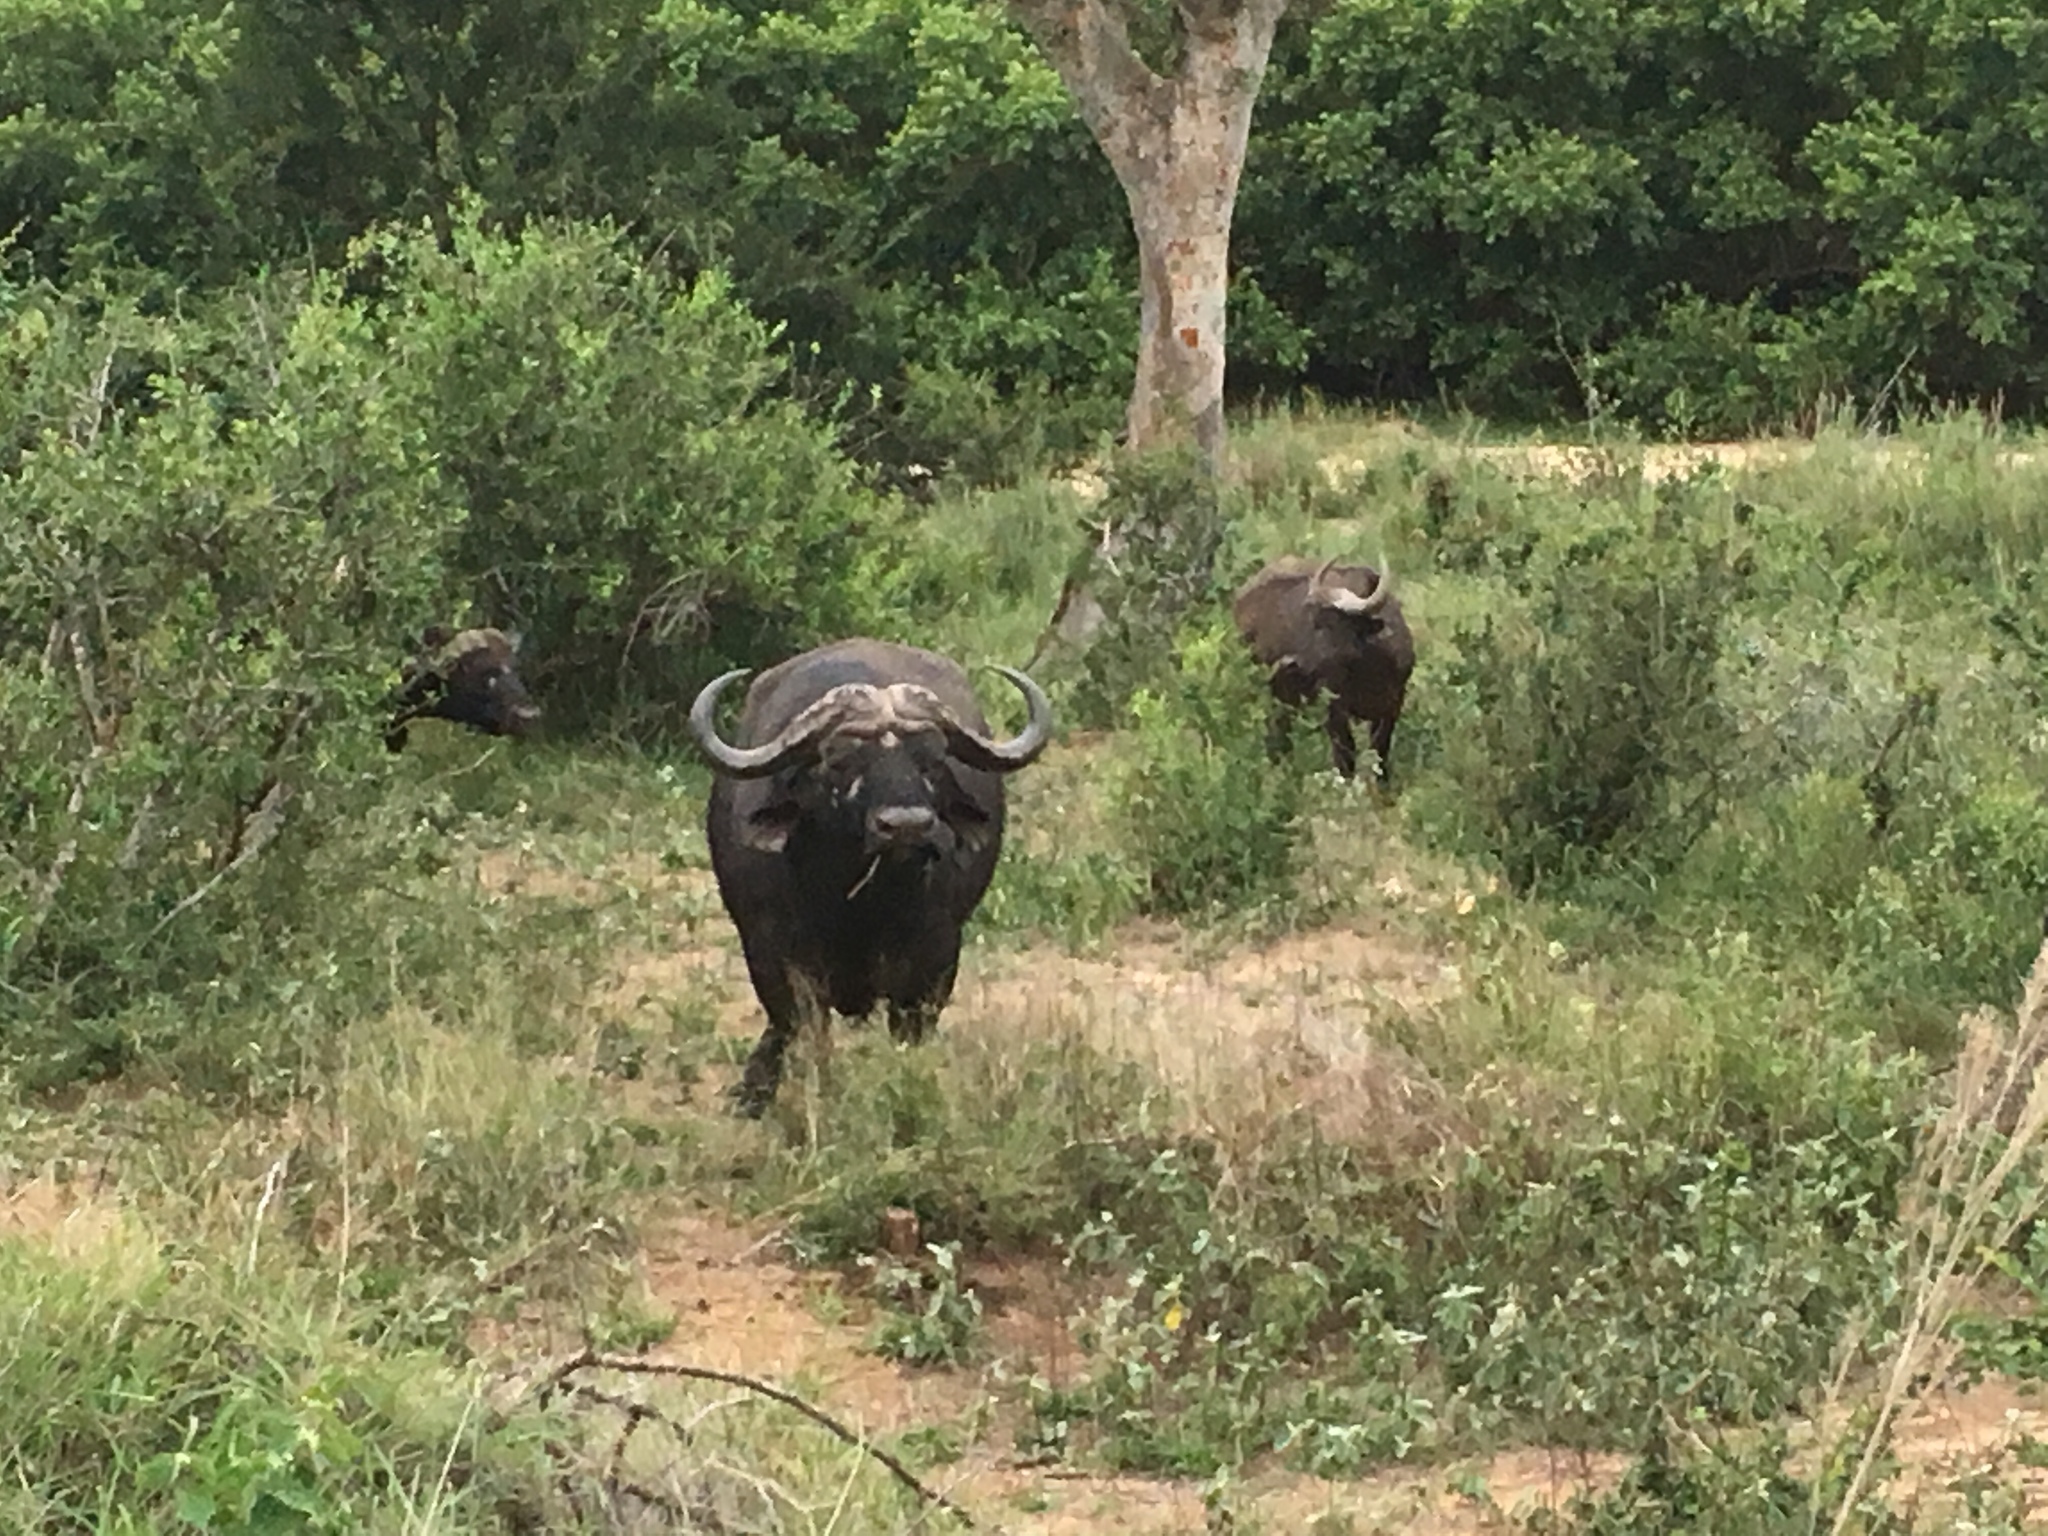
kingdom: Animalia
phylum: Chordata
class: Mammalia
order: Artiodactyla
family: Bovidae
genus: Syncerus
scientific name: Syncerus caffer
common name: African buffalo
